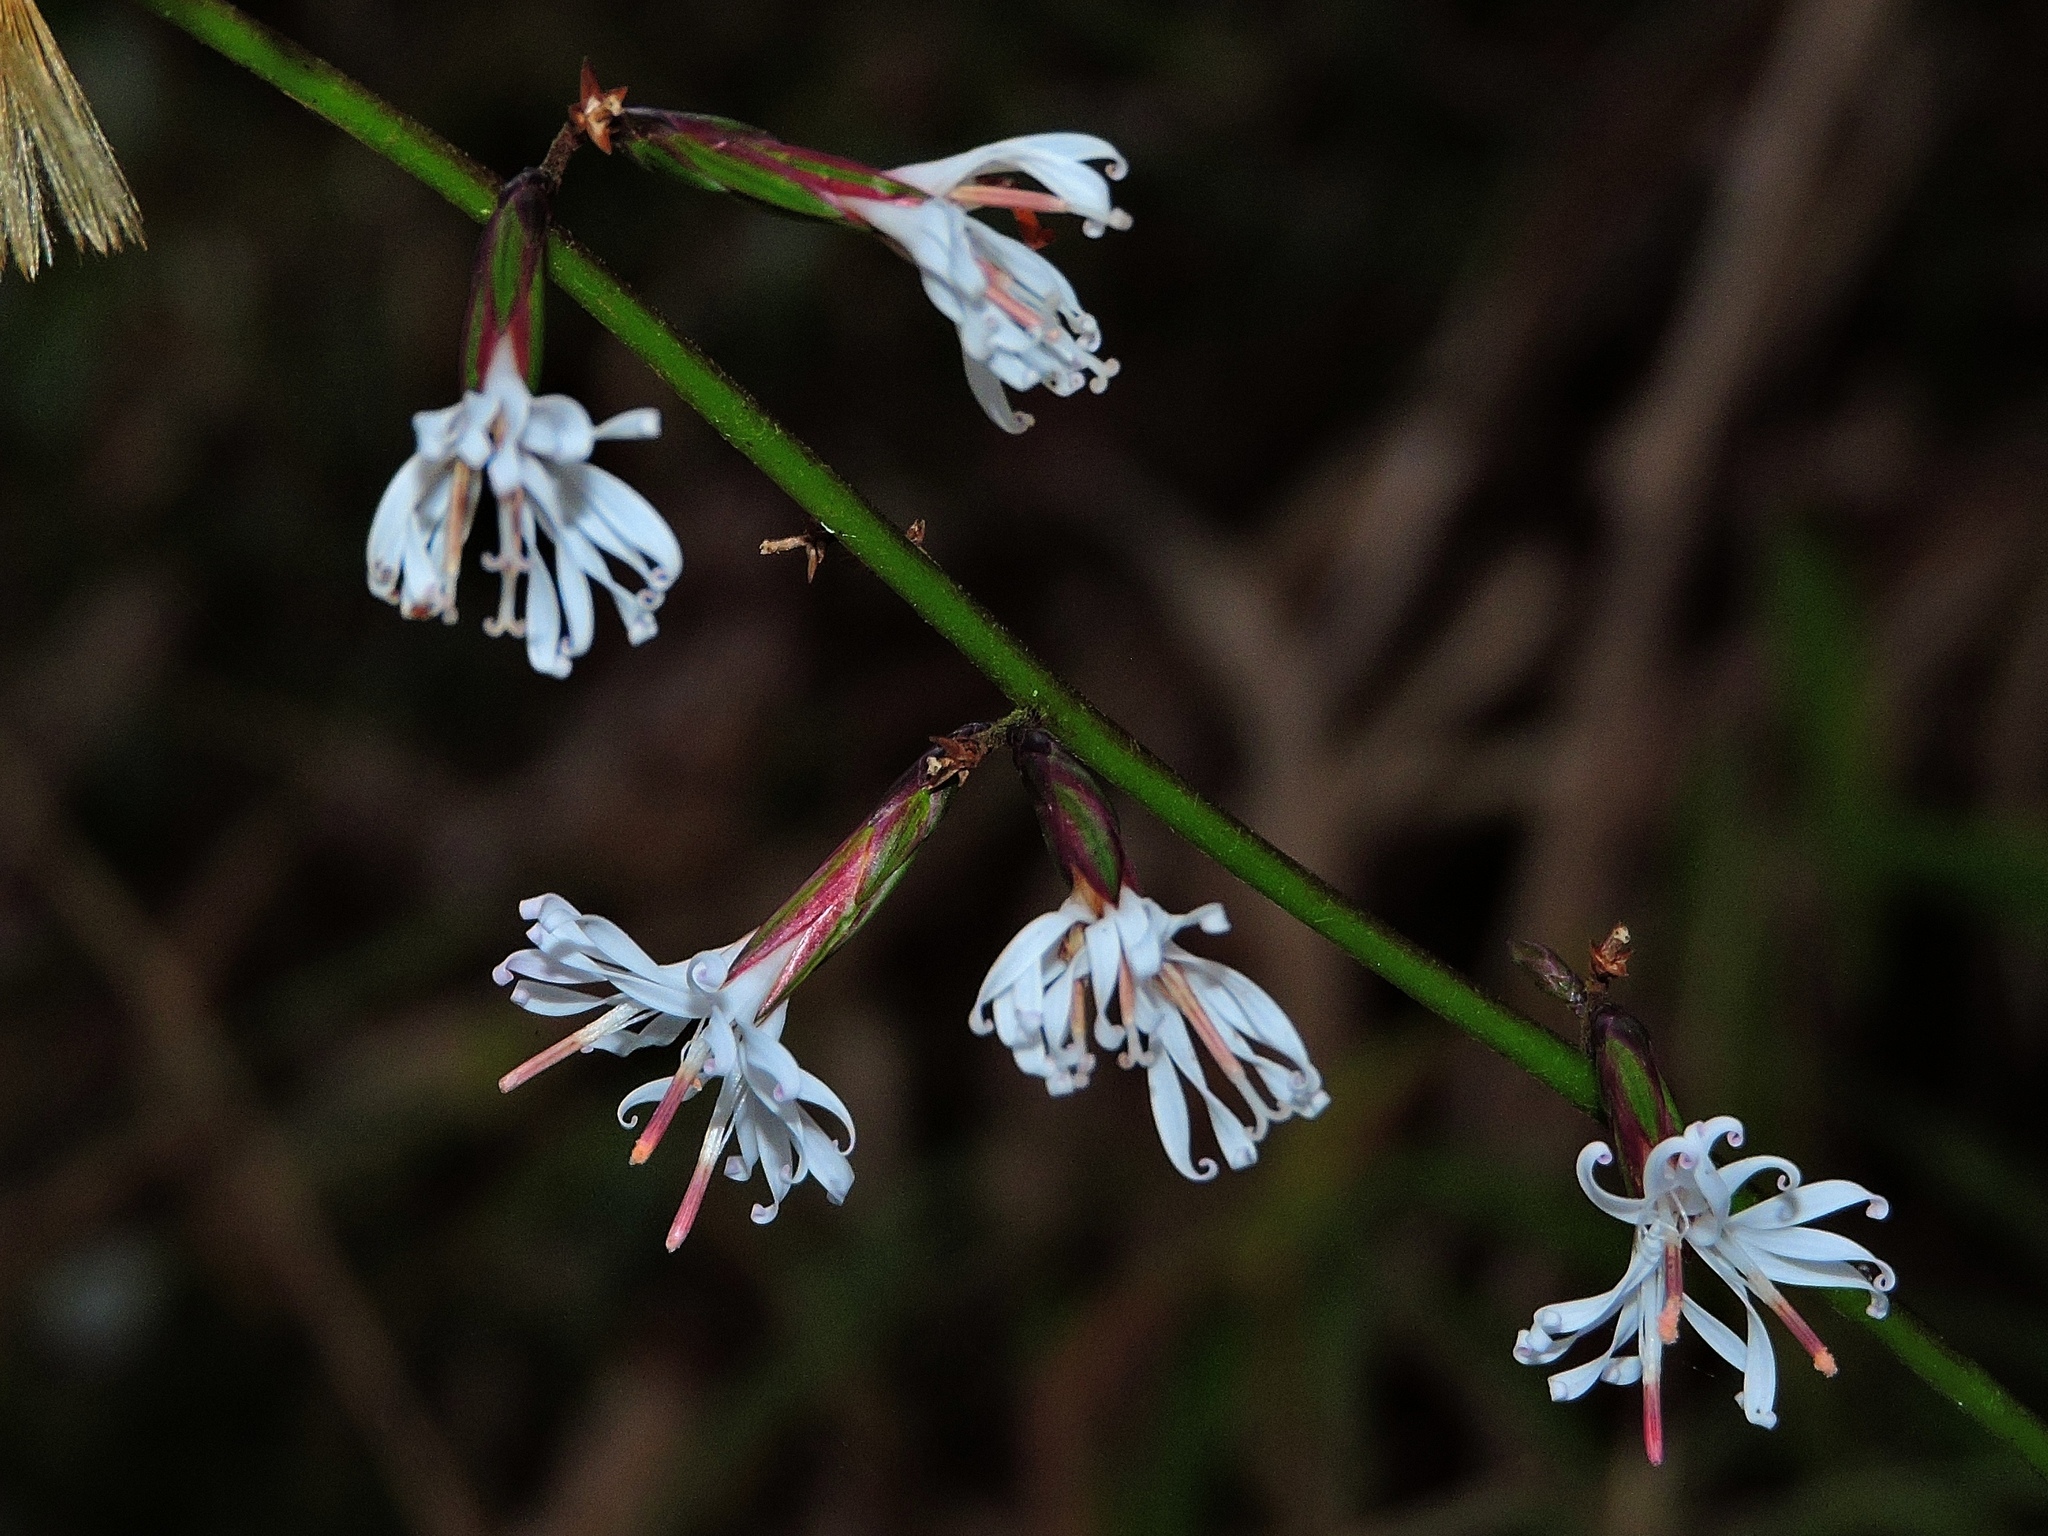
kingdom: Plantae
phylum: Tracheophyta
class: Magnoliopsida
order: Asterales
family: Asteraceae
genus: Ainsliaea
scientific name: Ainsliaea macroclinidioides
